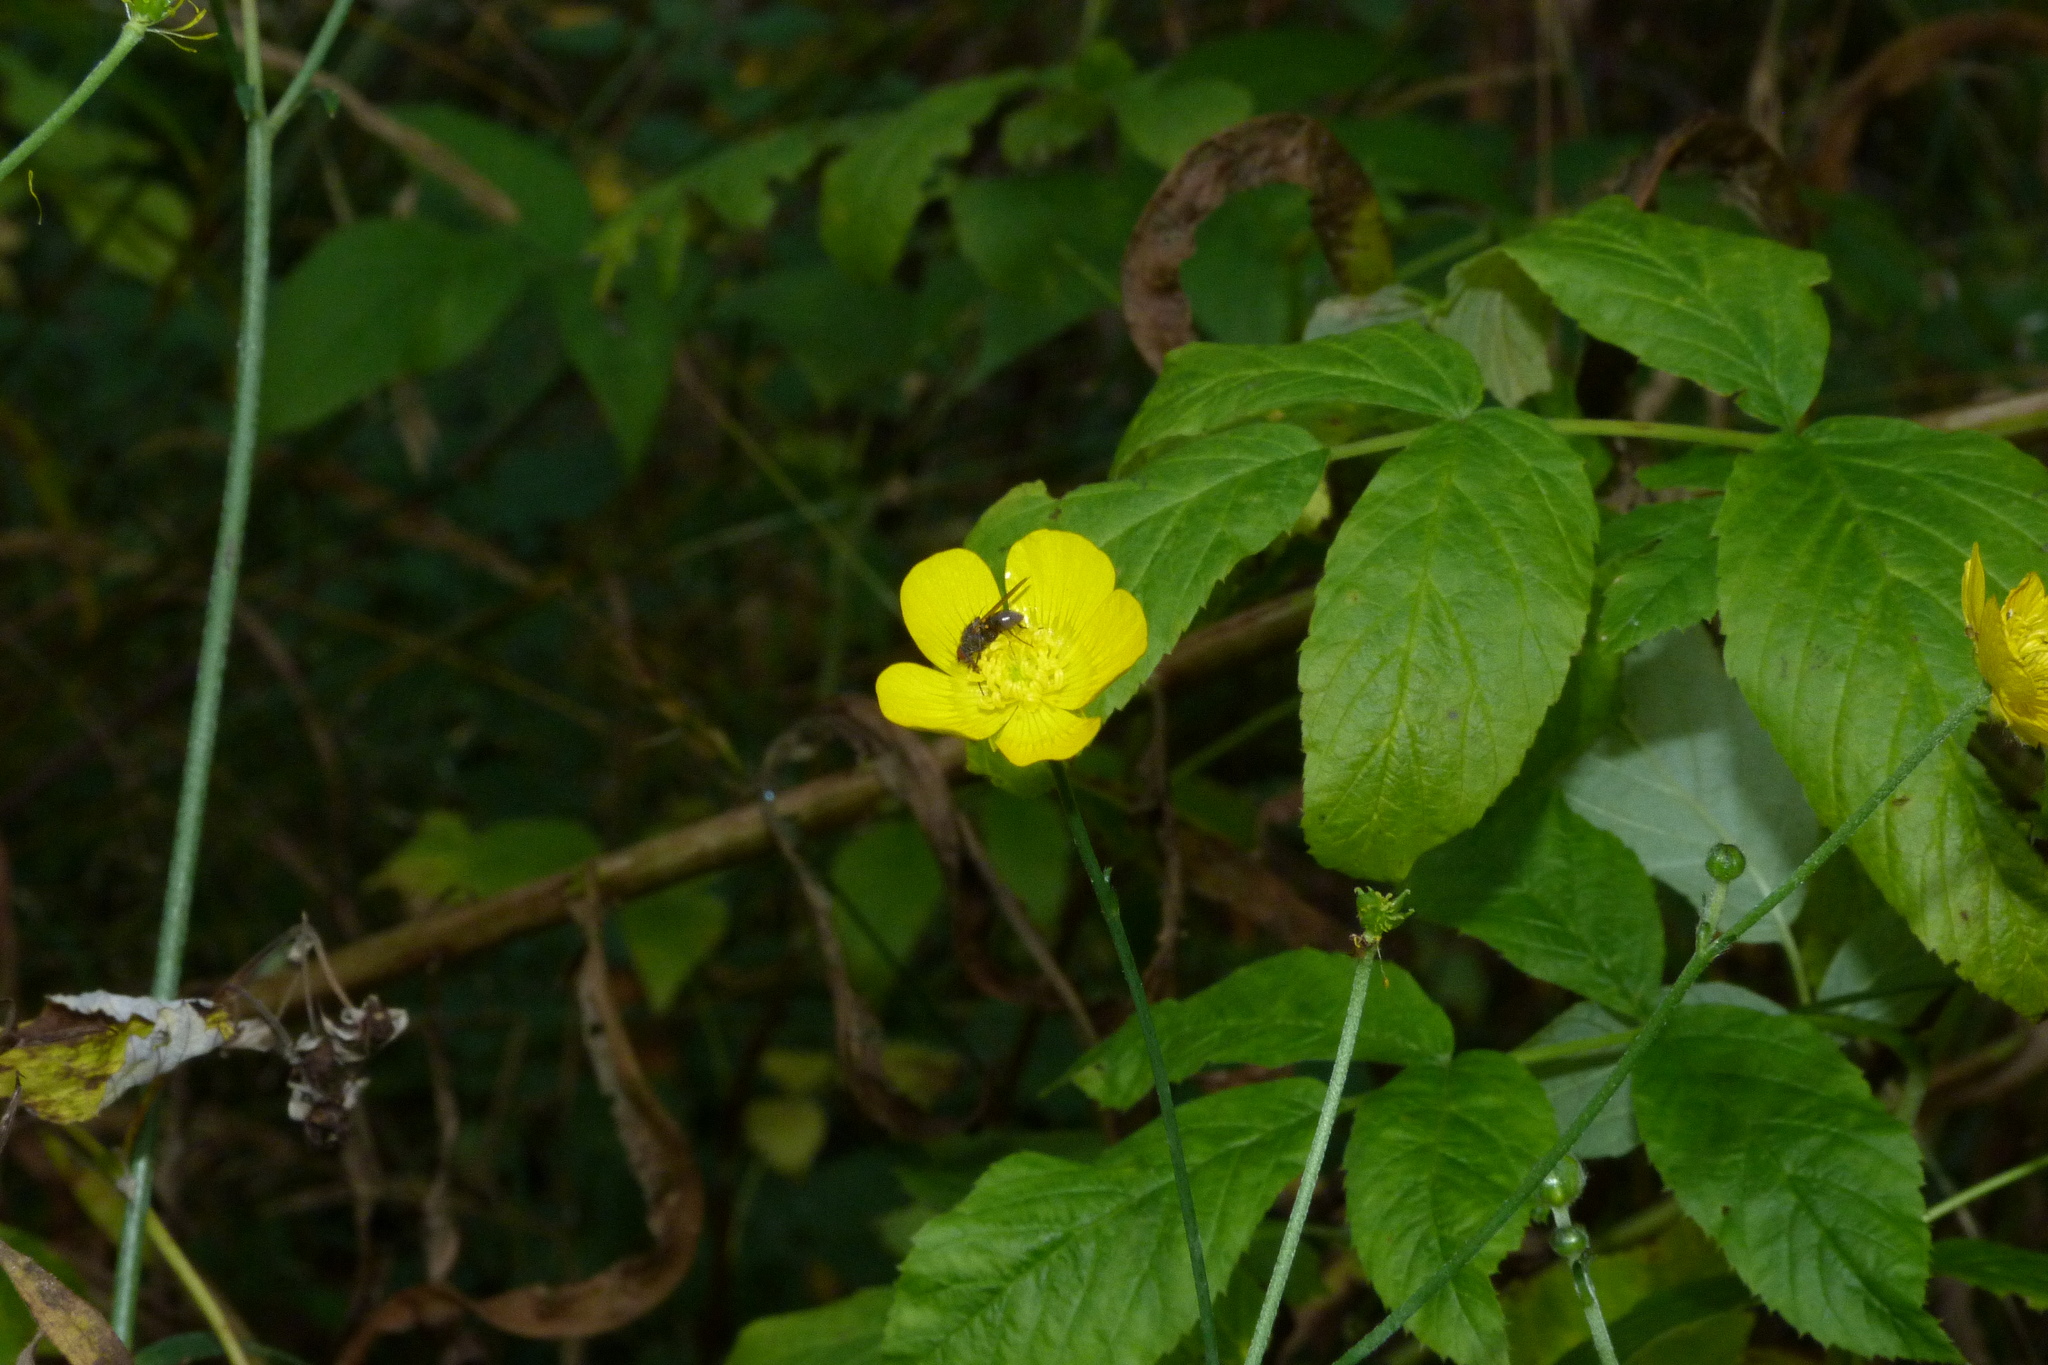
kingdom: Plantae
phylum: Tracheophyta
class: Magnoliopsida
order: Ranunculales
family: Ranunculaceae
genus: Ranunculus
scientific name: Ranunculus acris
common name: Meadow buttercup
